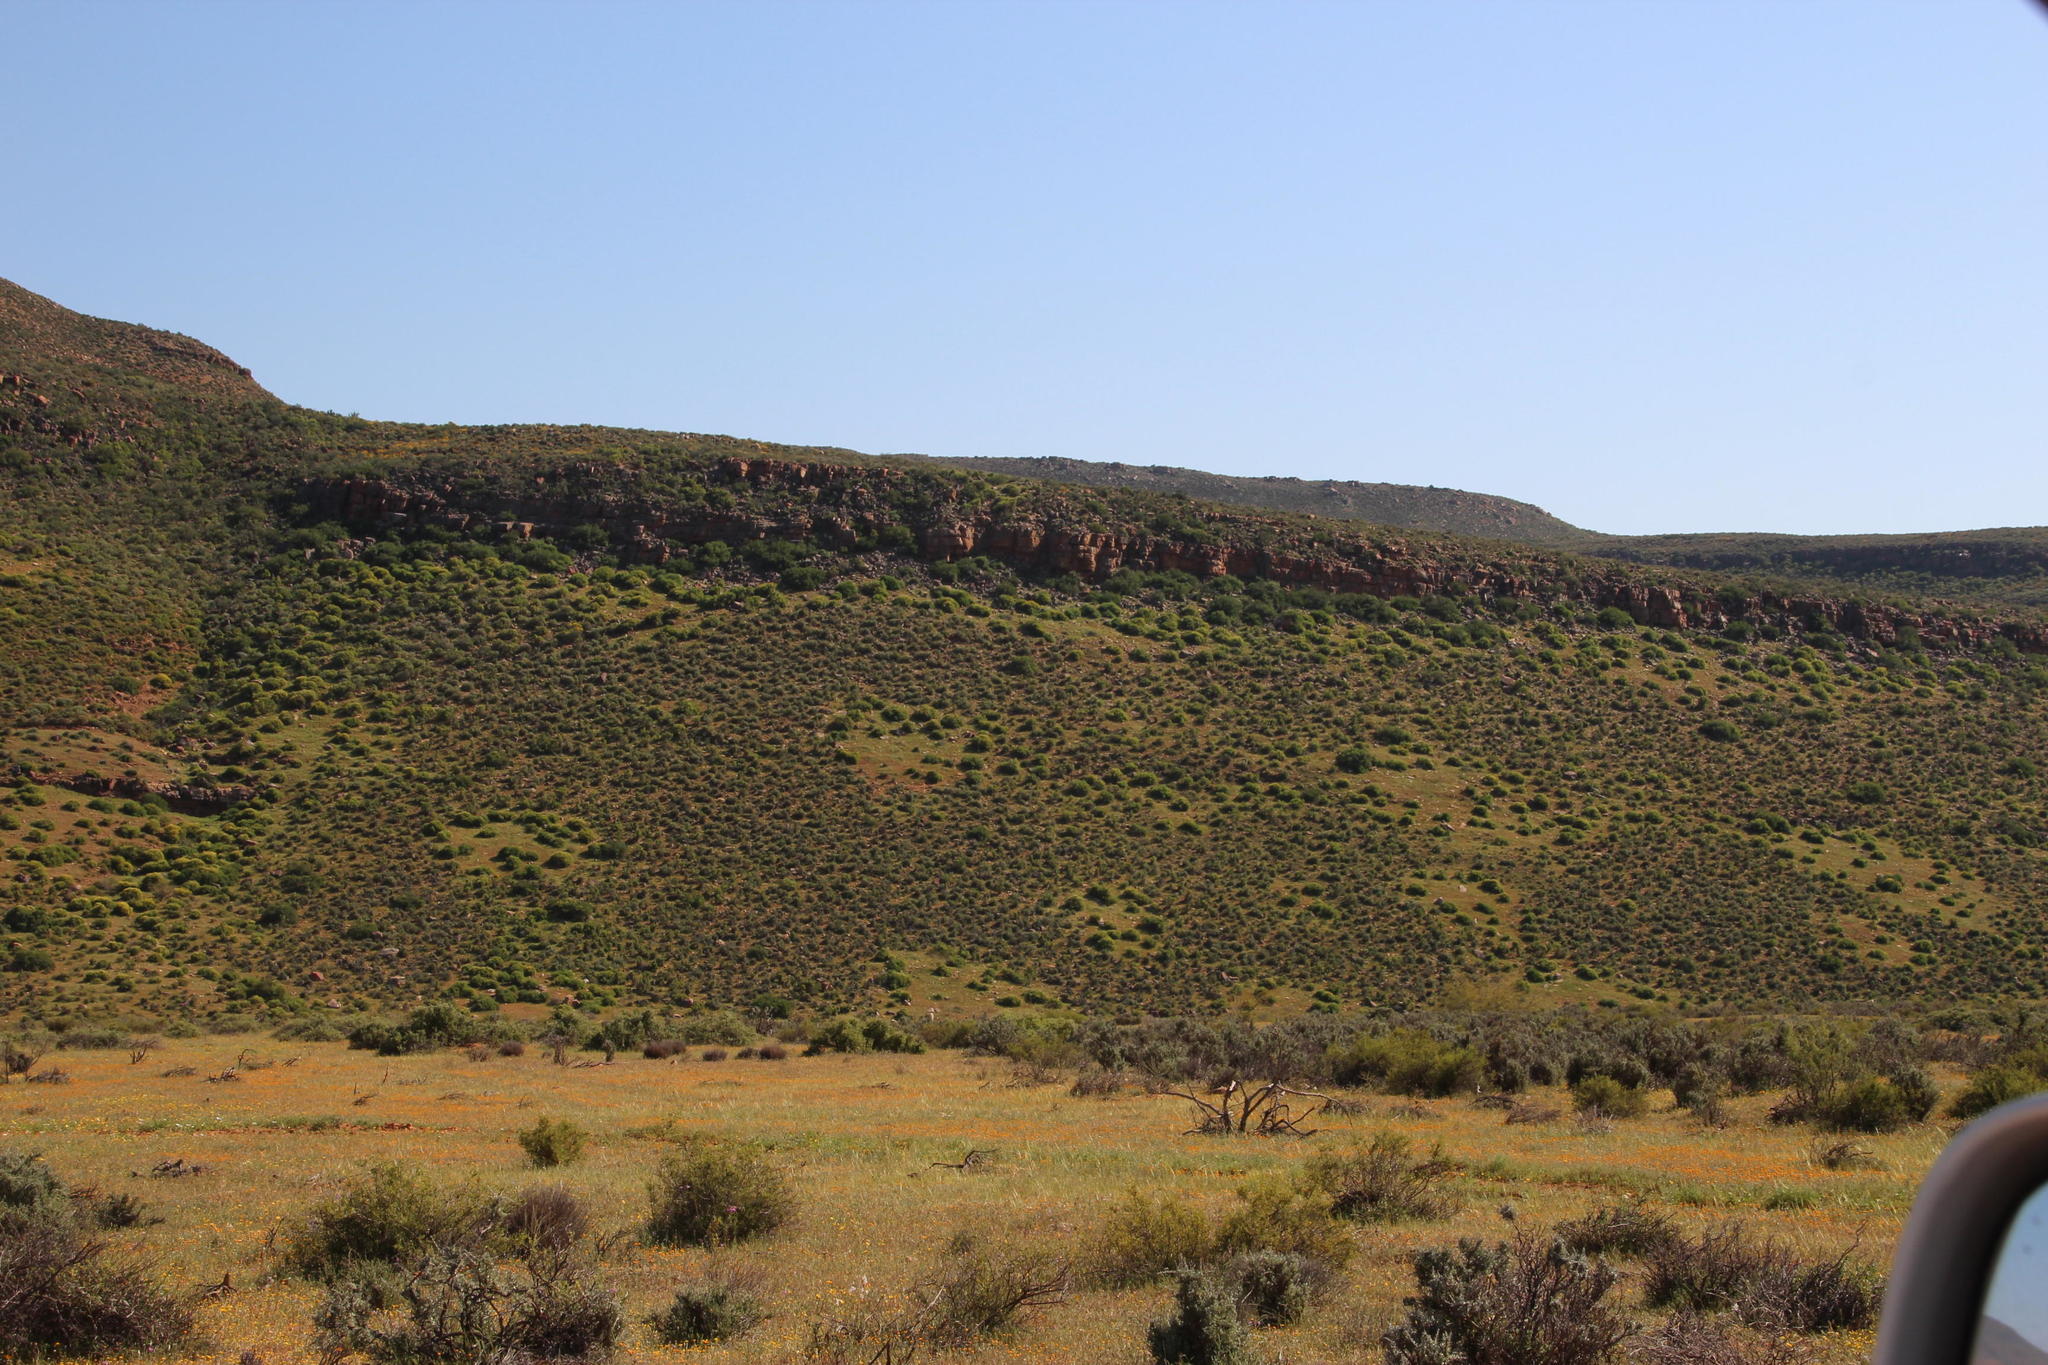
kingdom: Animalia
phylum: Arthropoda
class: Insecta
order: Blattodea
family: Hodotermitidae
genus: Microhodotermes
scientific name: Microhodotermes viator
